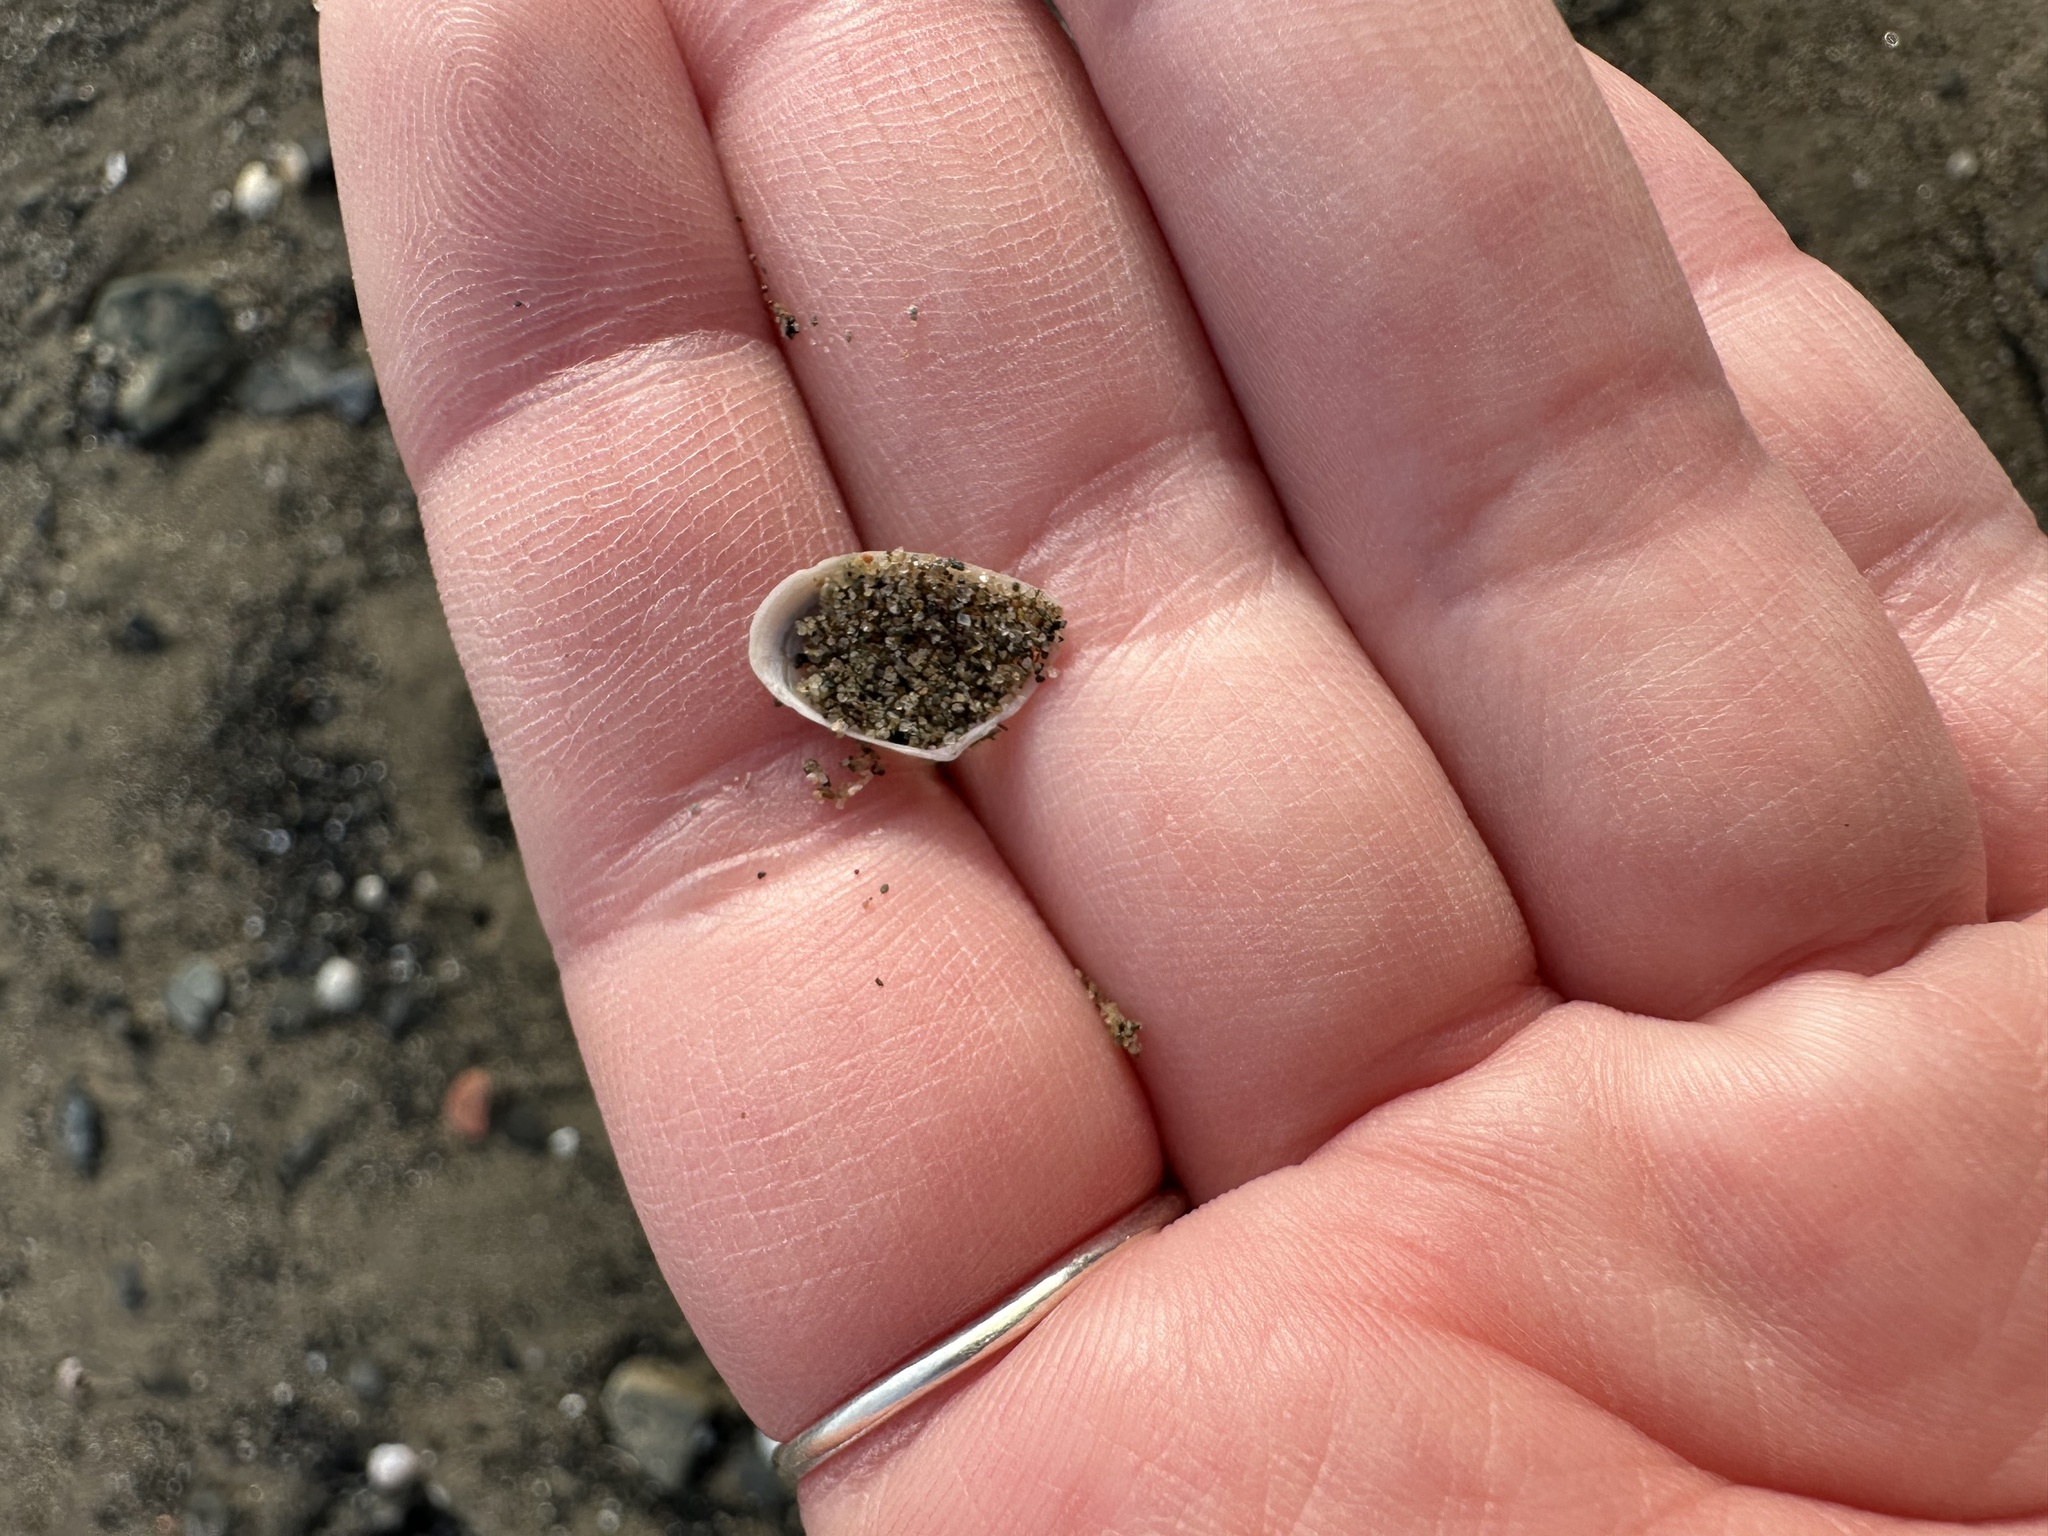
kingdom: Animalia
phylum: Mollusca
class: Bivalvia
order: Cardiida
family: Tellinidae
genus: Ameritella
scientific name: Ameritella agilis
